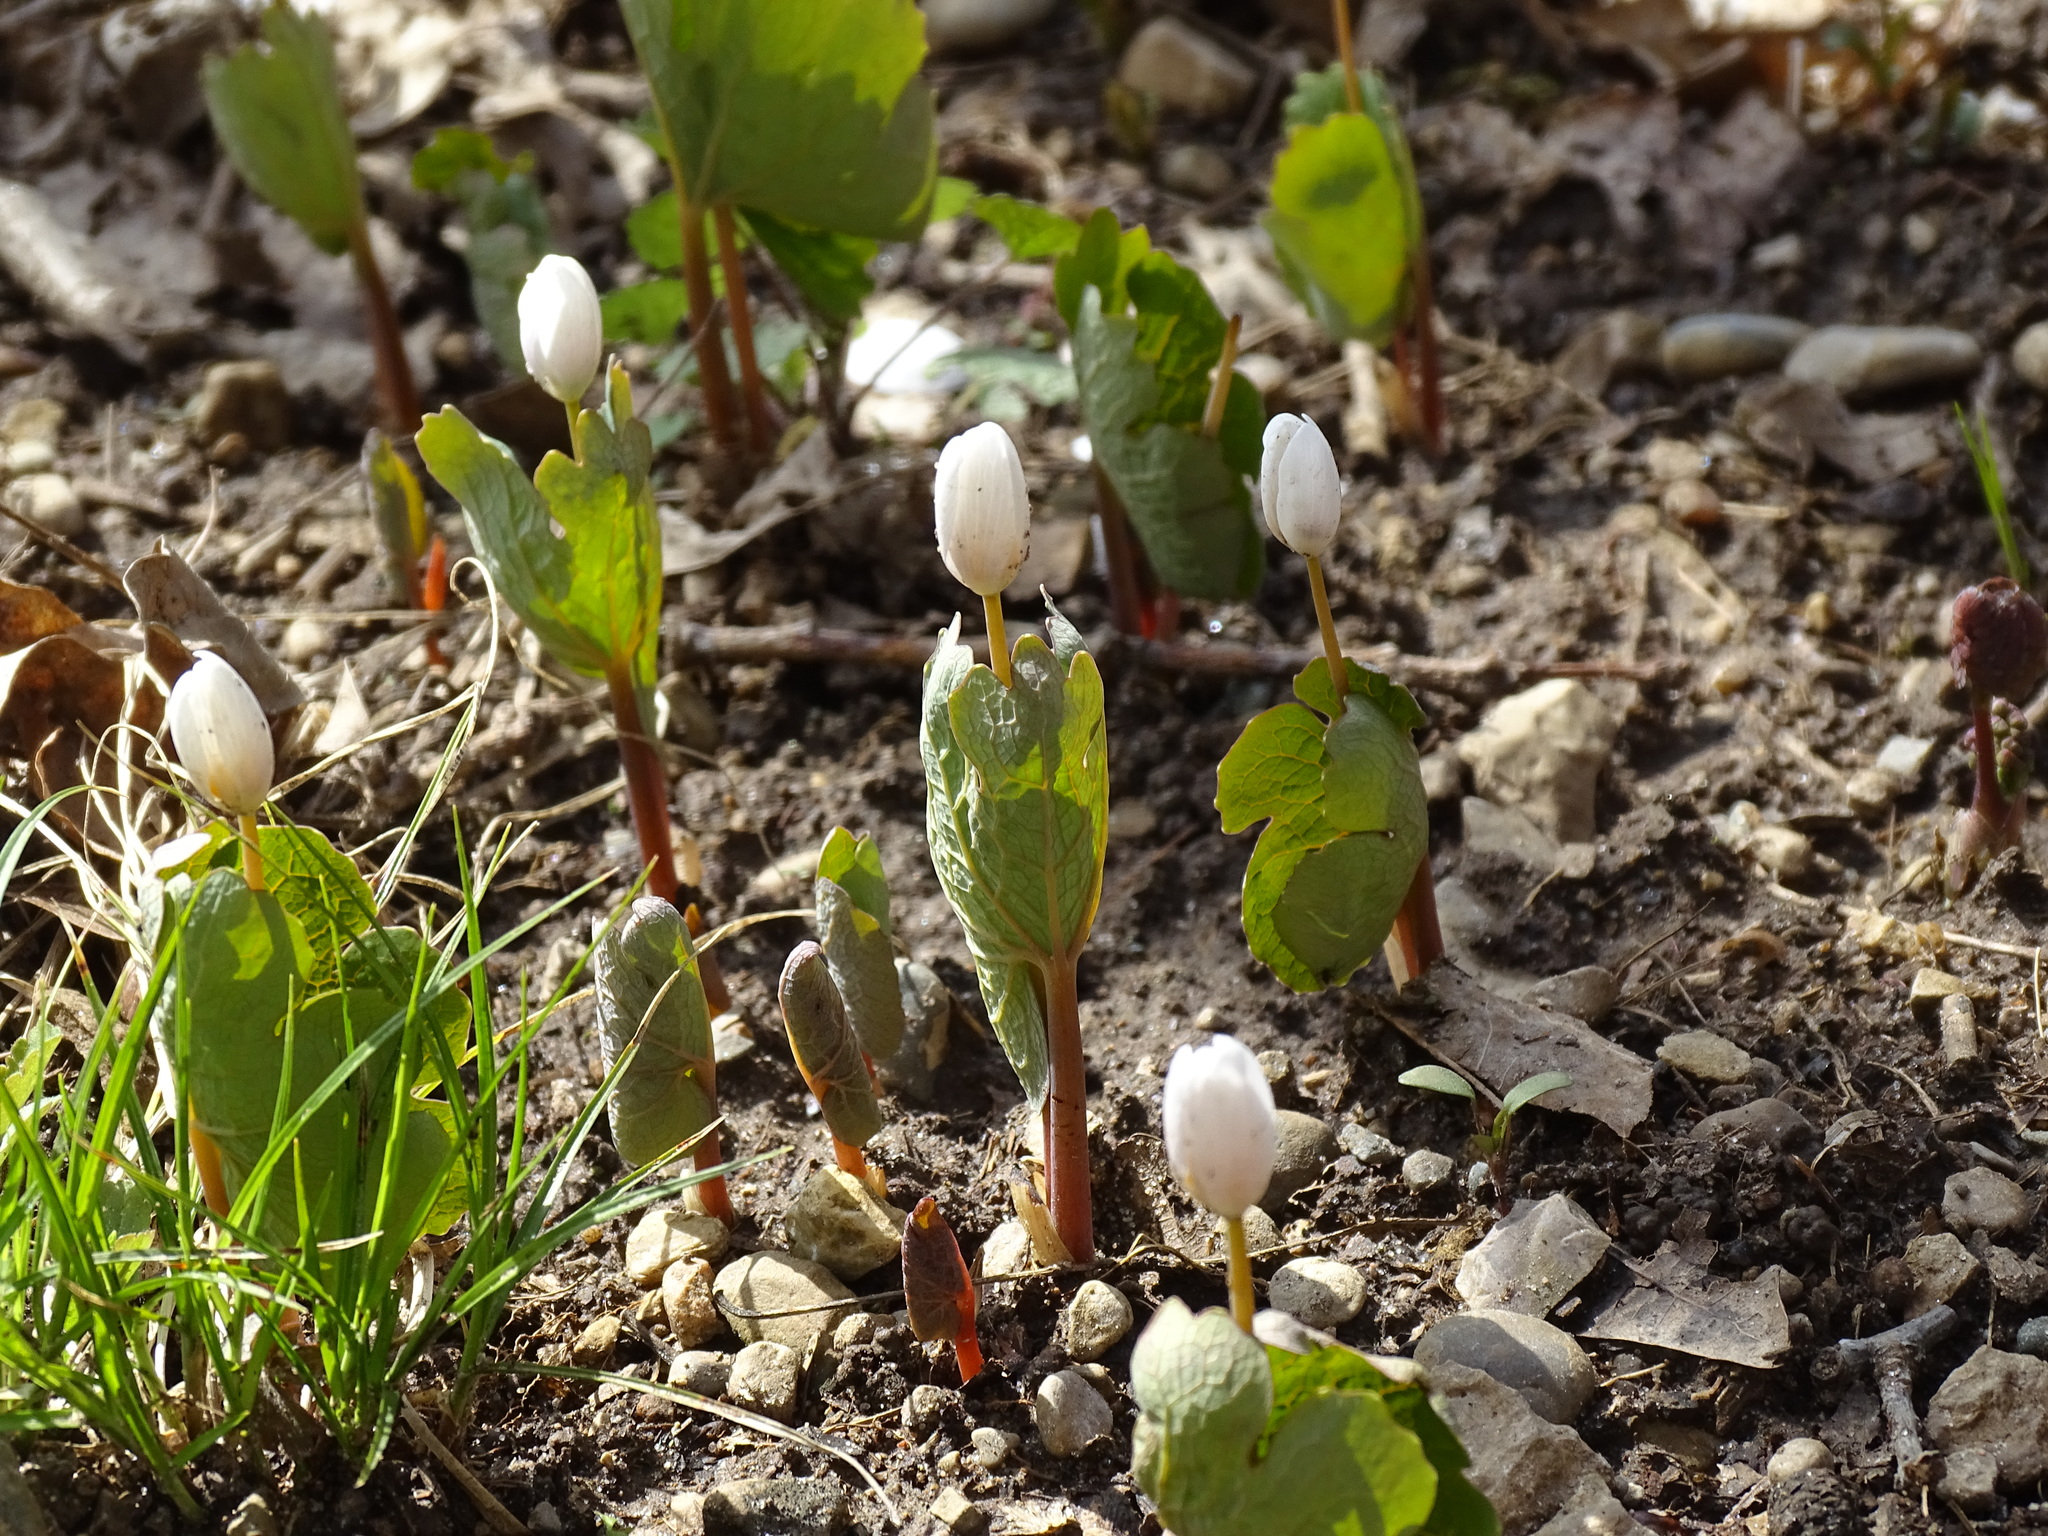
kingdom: Plantae
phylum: Tracheophyta
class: Magnoliopsida
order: Ranunculales
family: Papaveraceae
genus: Sanguinaria
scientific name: Sanguinaria canadensis
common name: Bloodroot
